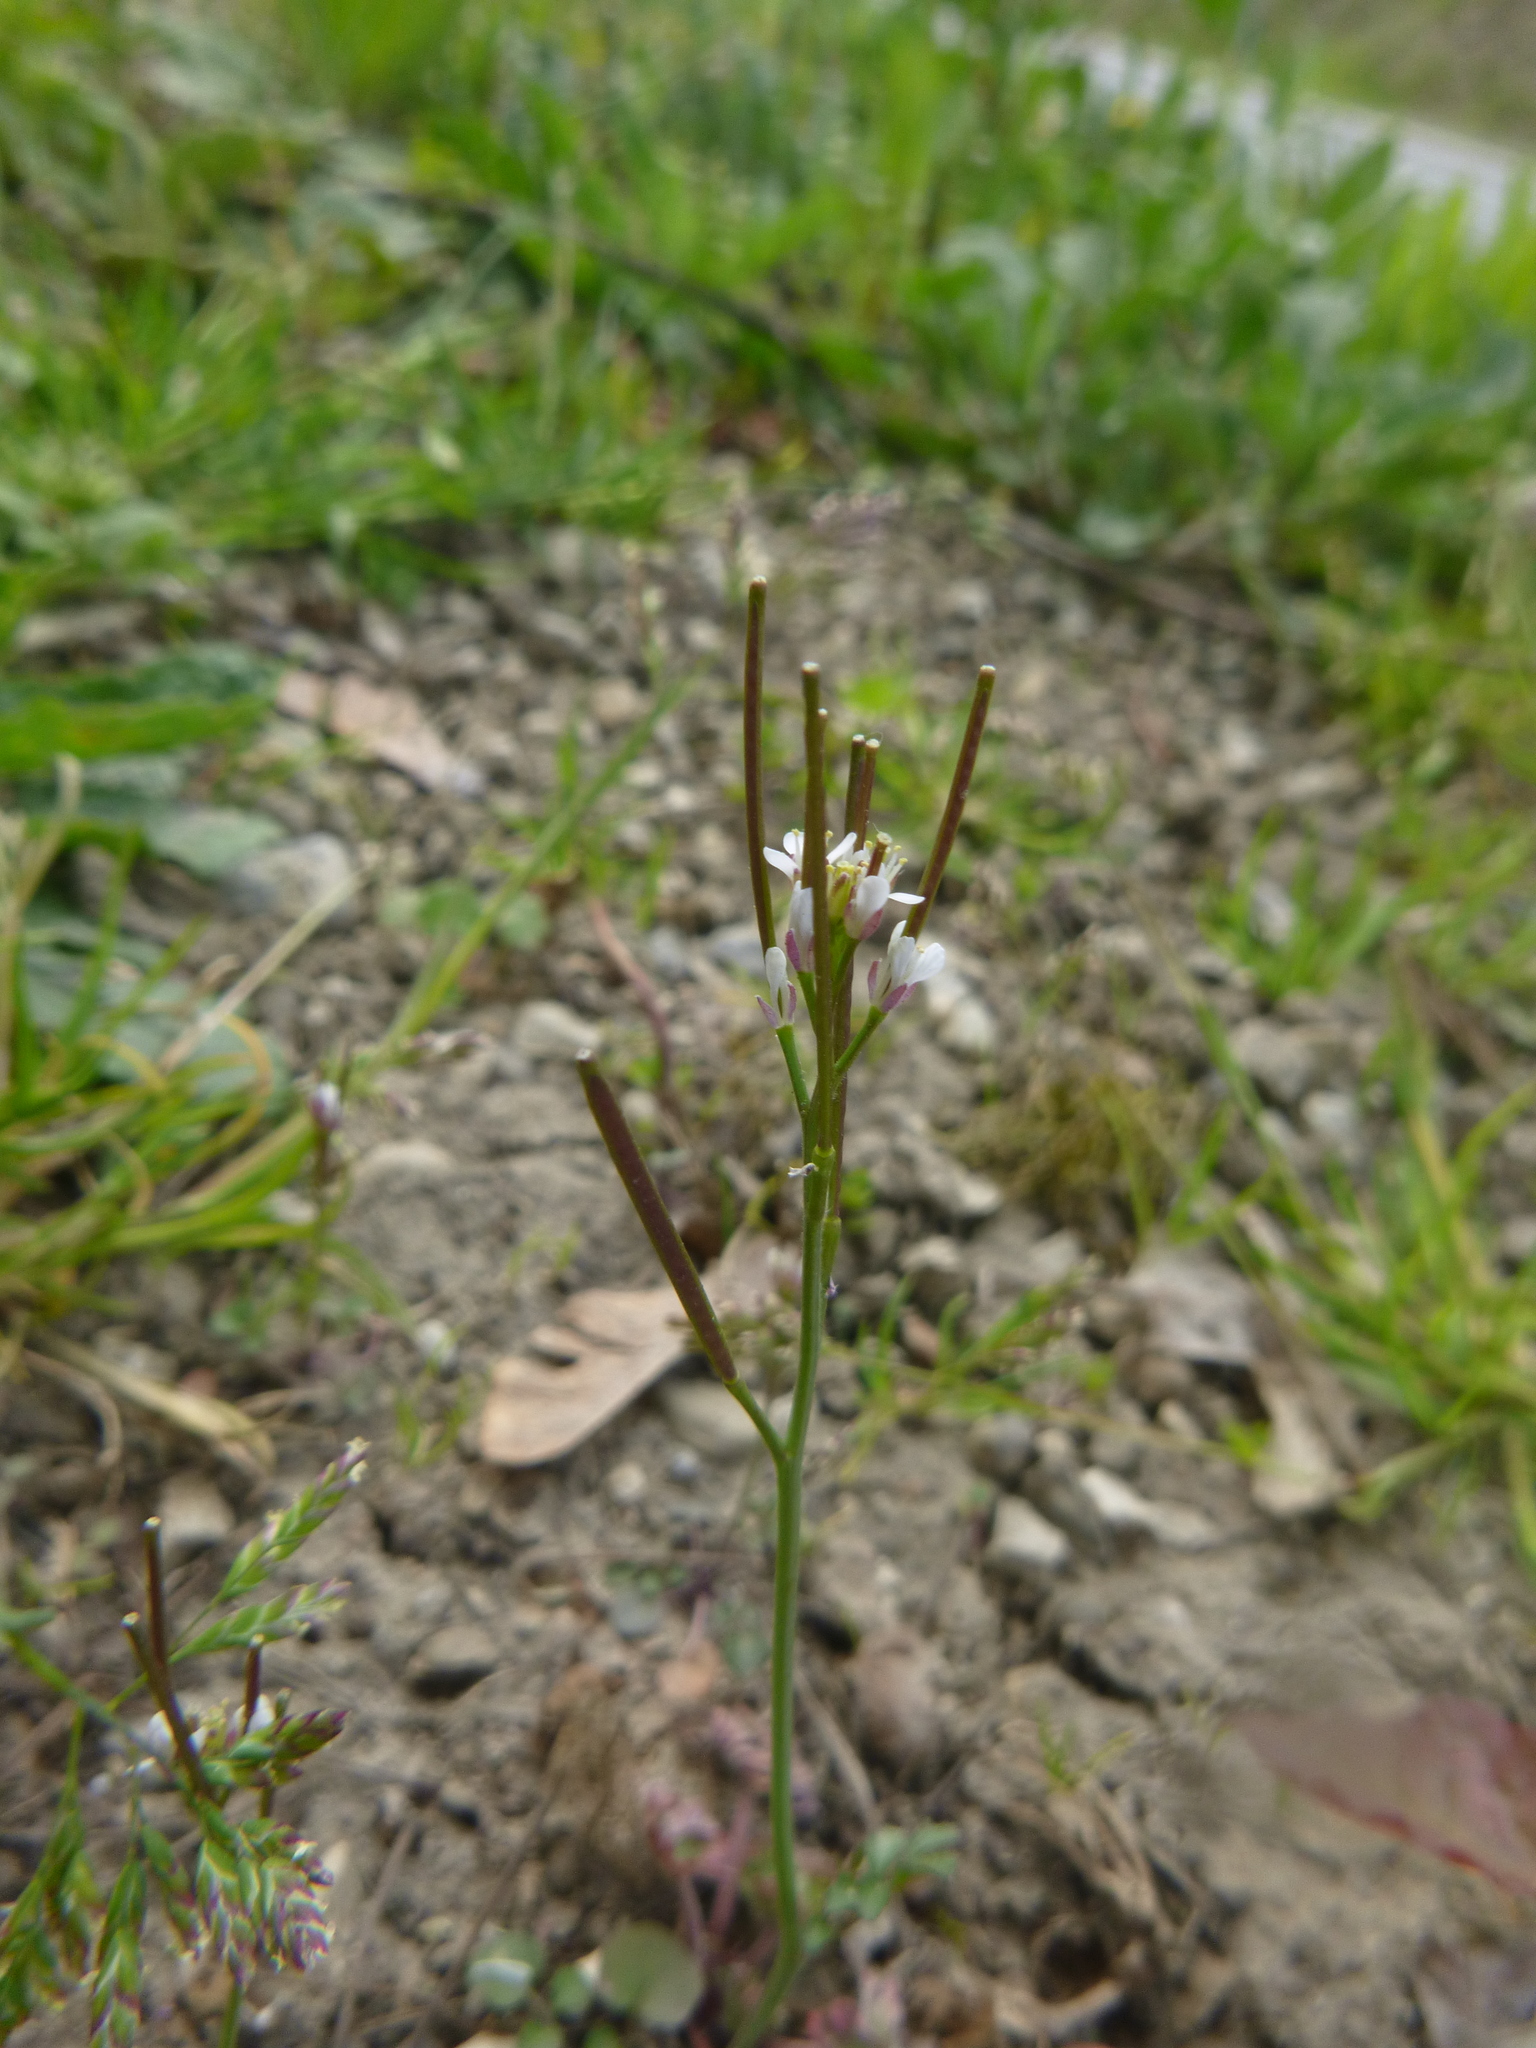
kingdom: Plantae
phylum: Tracheophyta
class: Magnoliopsida
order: Brassicales
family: Brassicaceae
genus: Cardamine
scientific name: Cardamine hirsuta
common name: Hairy bittercress
